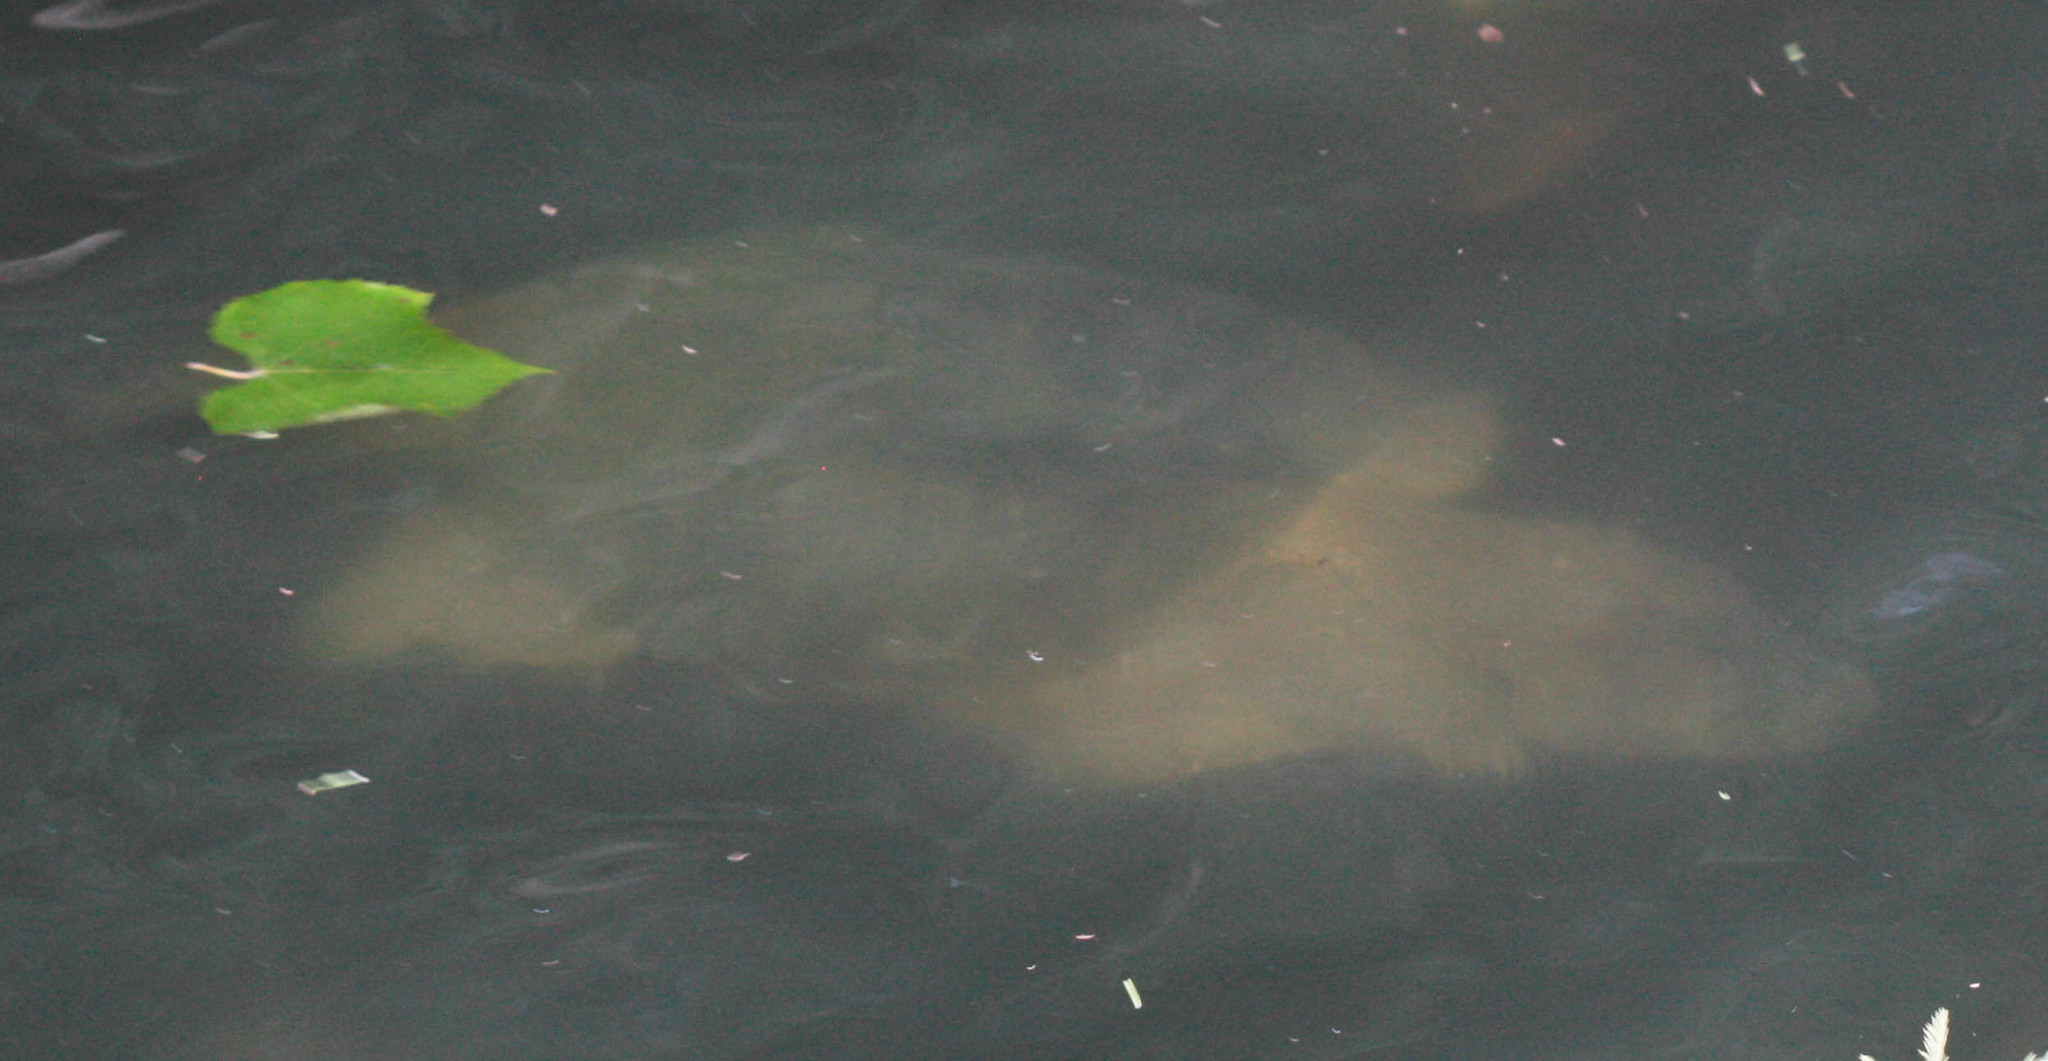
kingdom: Animalia
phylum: Chordata
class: Testudines
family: Chelydridae
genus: Chelydra
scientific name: Chelydra serpentina
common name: Common snapping turtle
